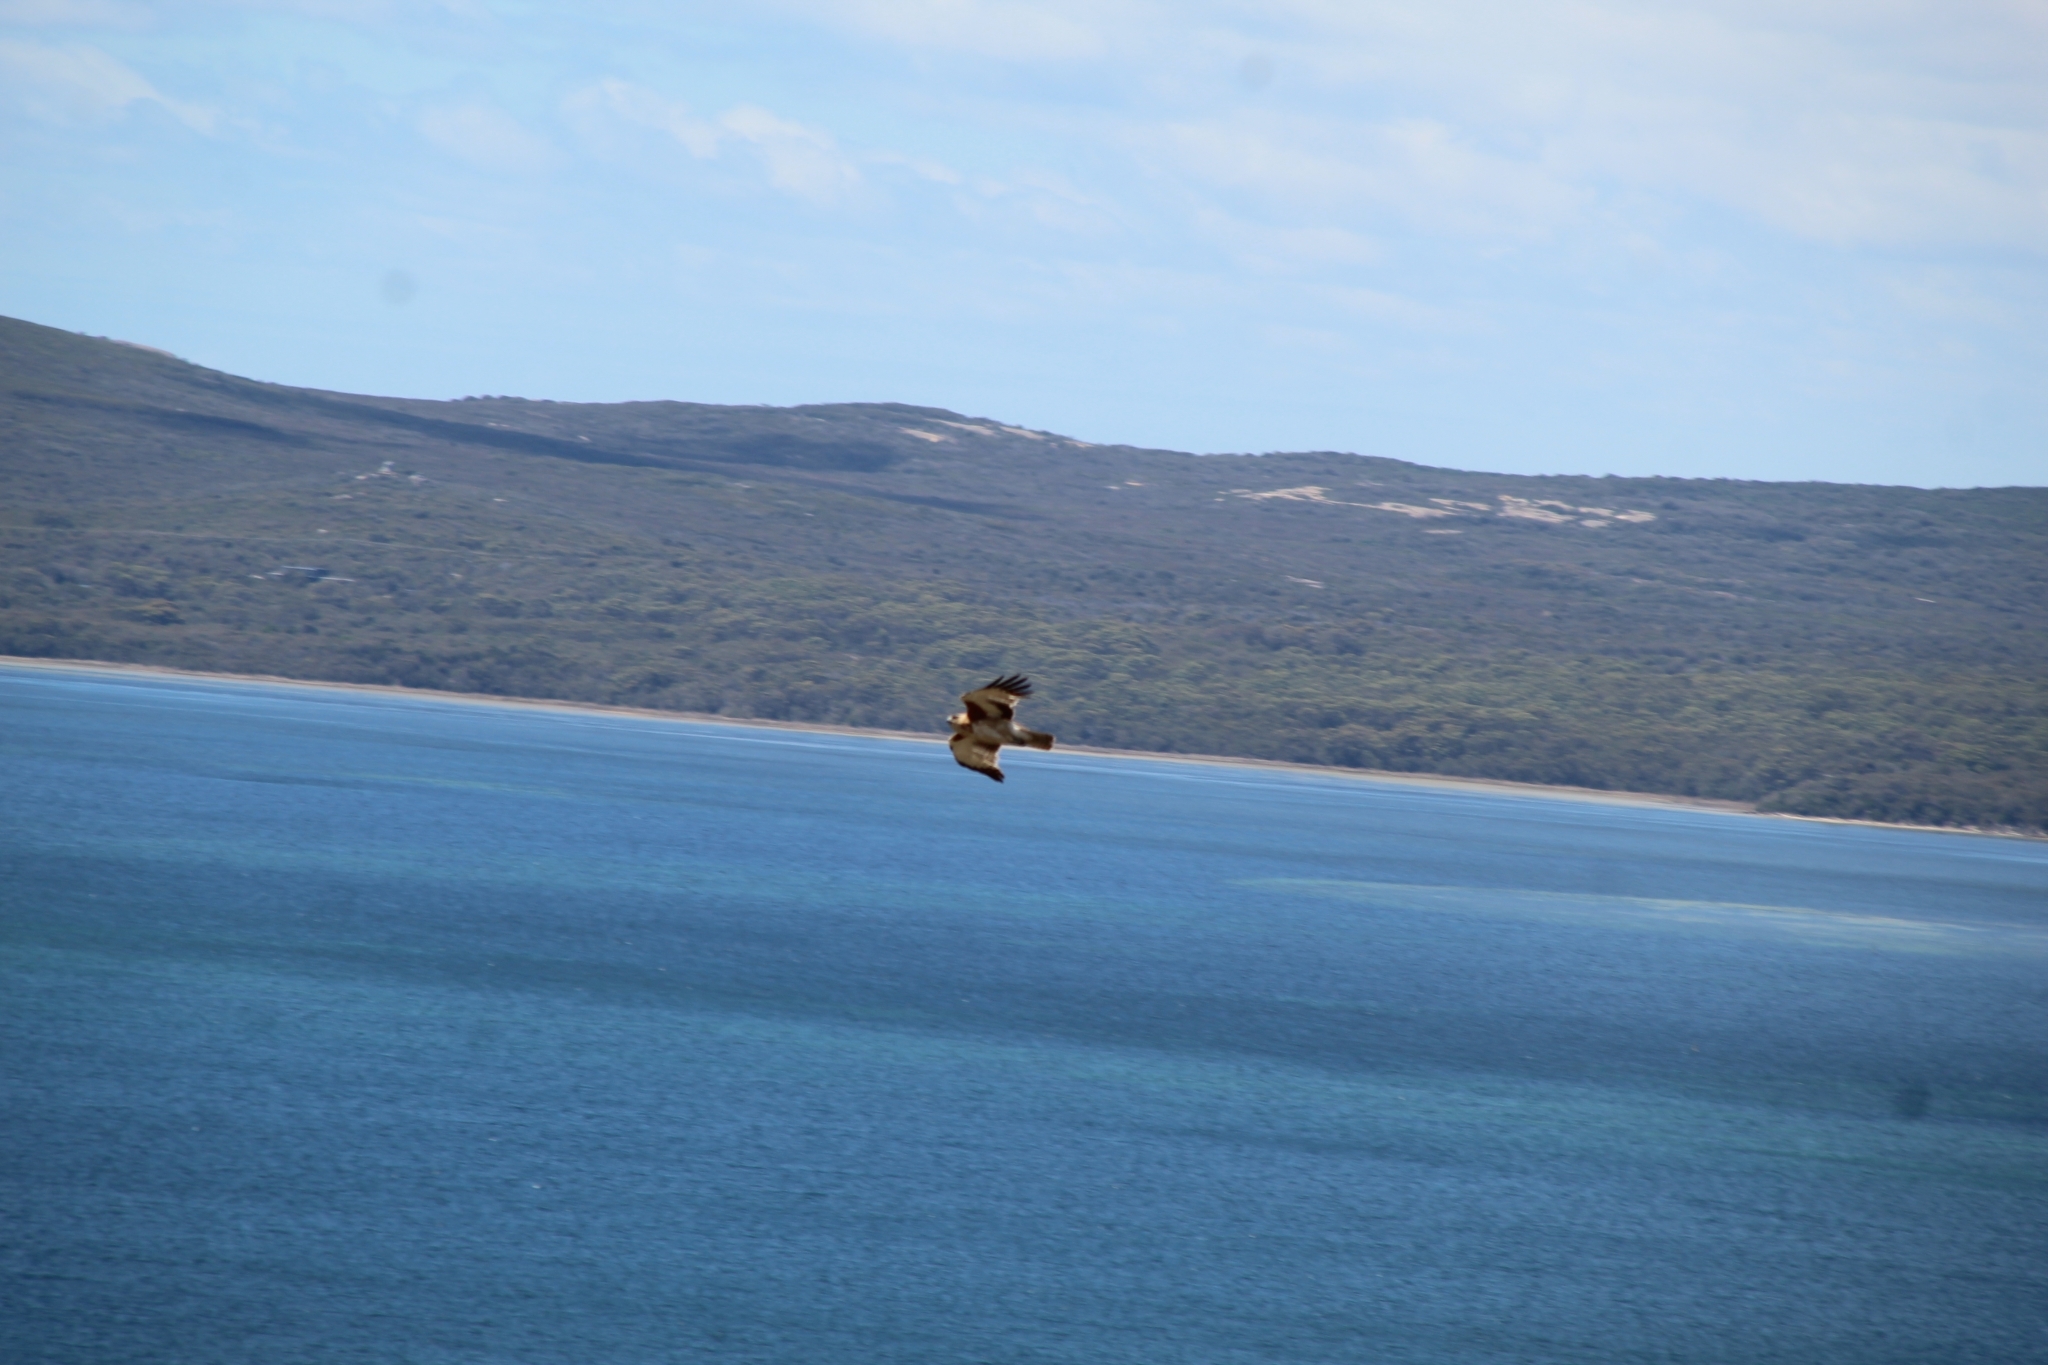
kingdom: Animalia
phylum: Chordata
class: Aves
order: Accipitriformes
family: Accipitridae
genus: Haliastur
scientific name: Haliastur sphenurus
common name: Whistling kite
